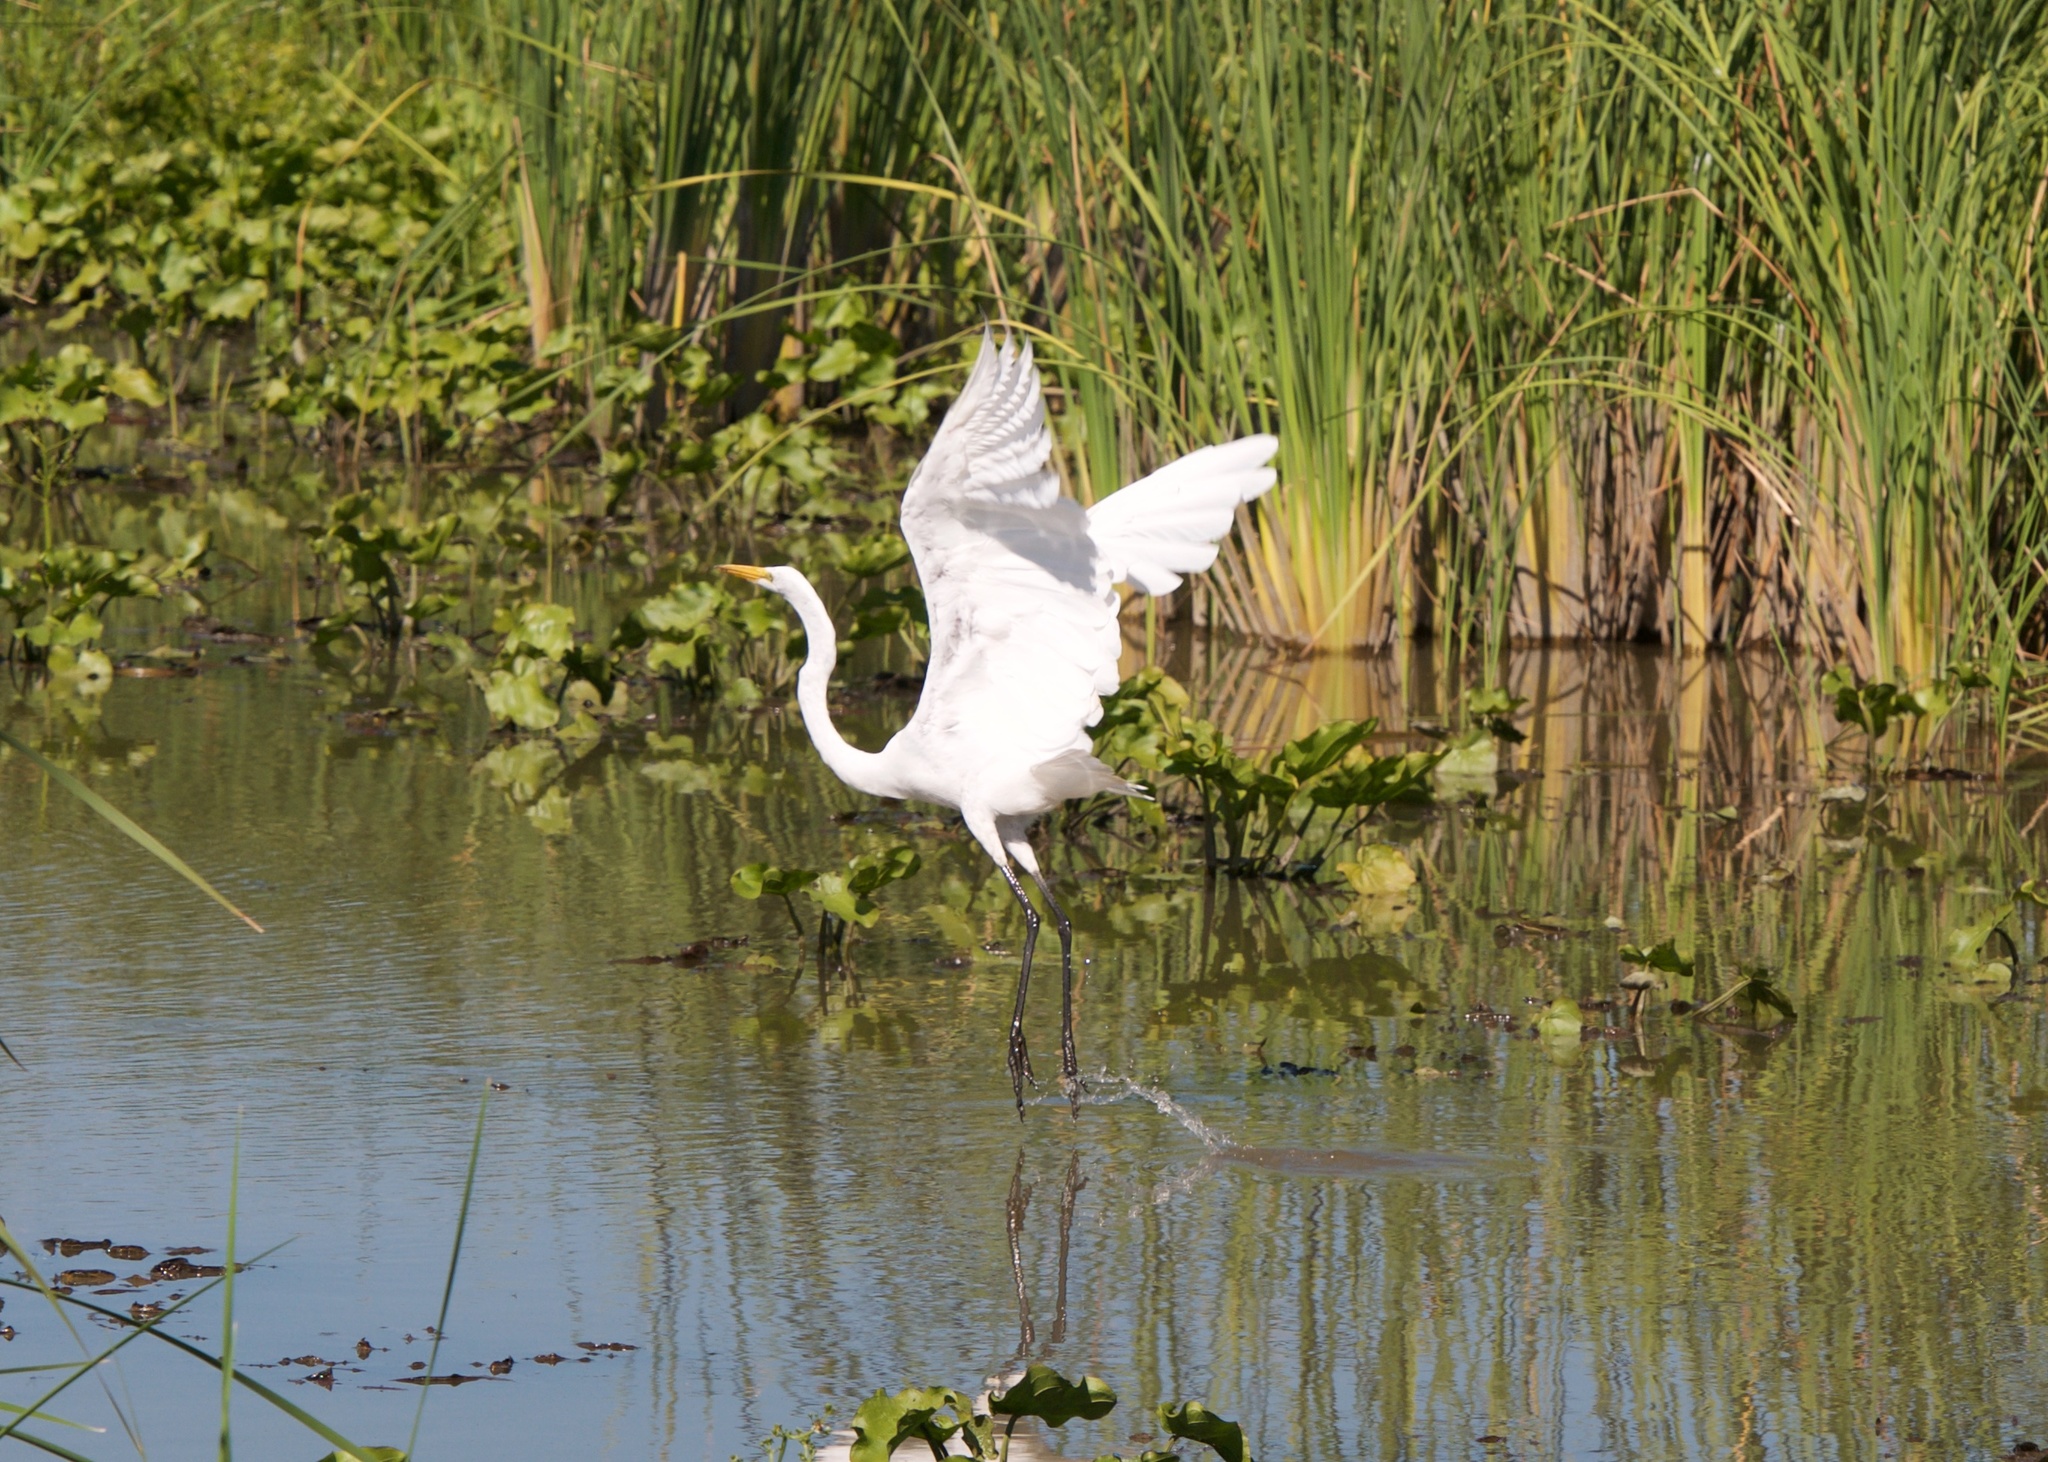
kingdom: Animalia
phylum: Chordata
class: Aves
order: Pelecaniformes
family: Ardeidae
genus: Ardea
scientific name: Ardea alba
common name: Great egret
